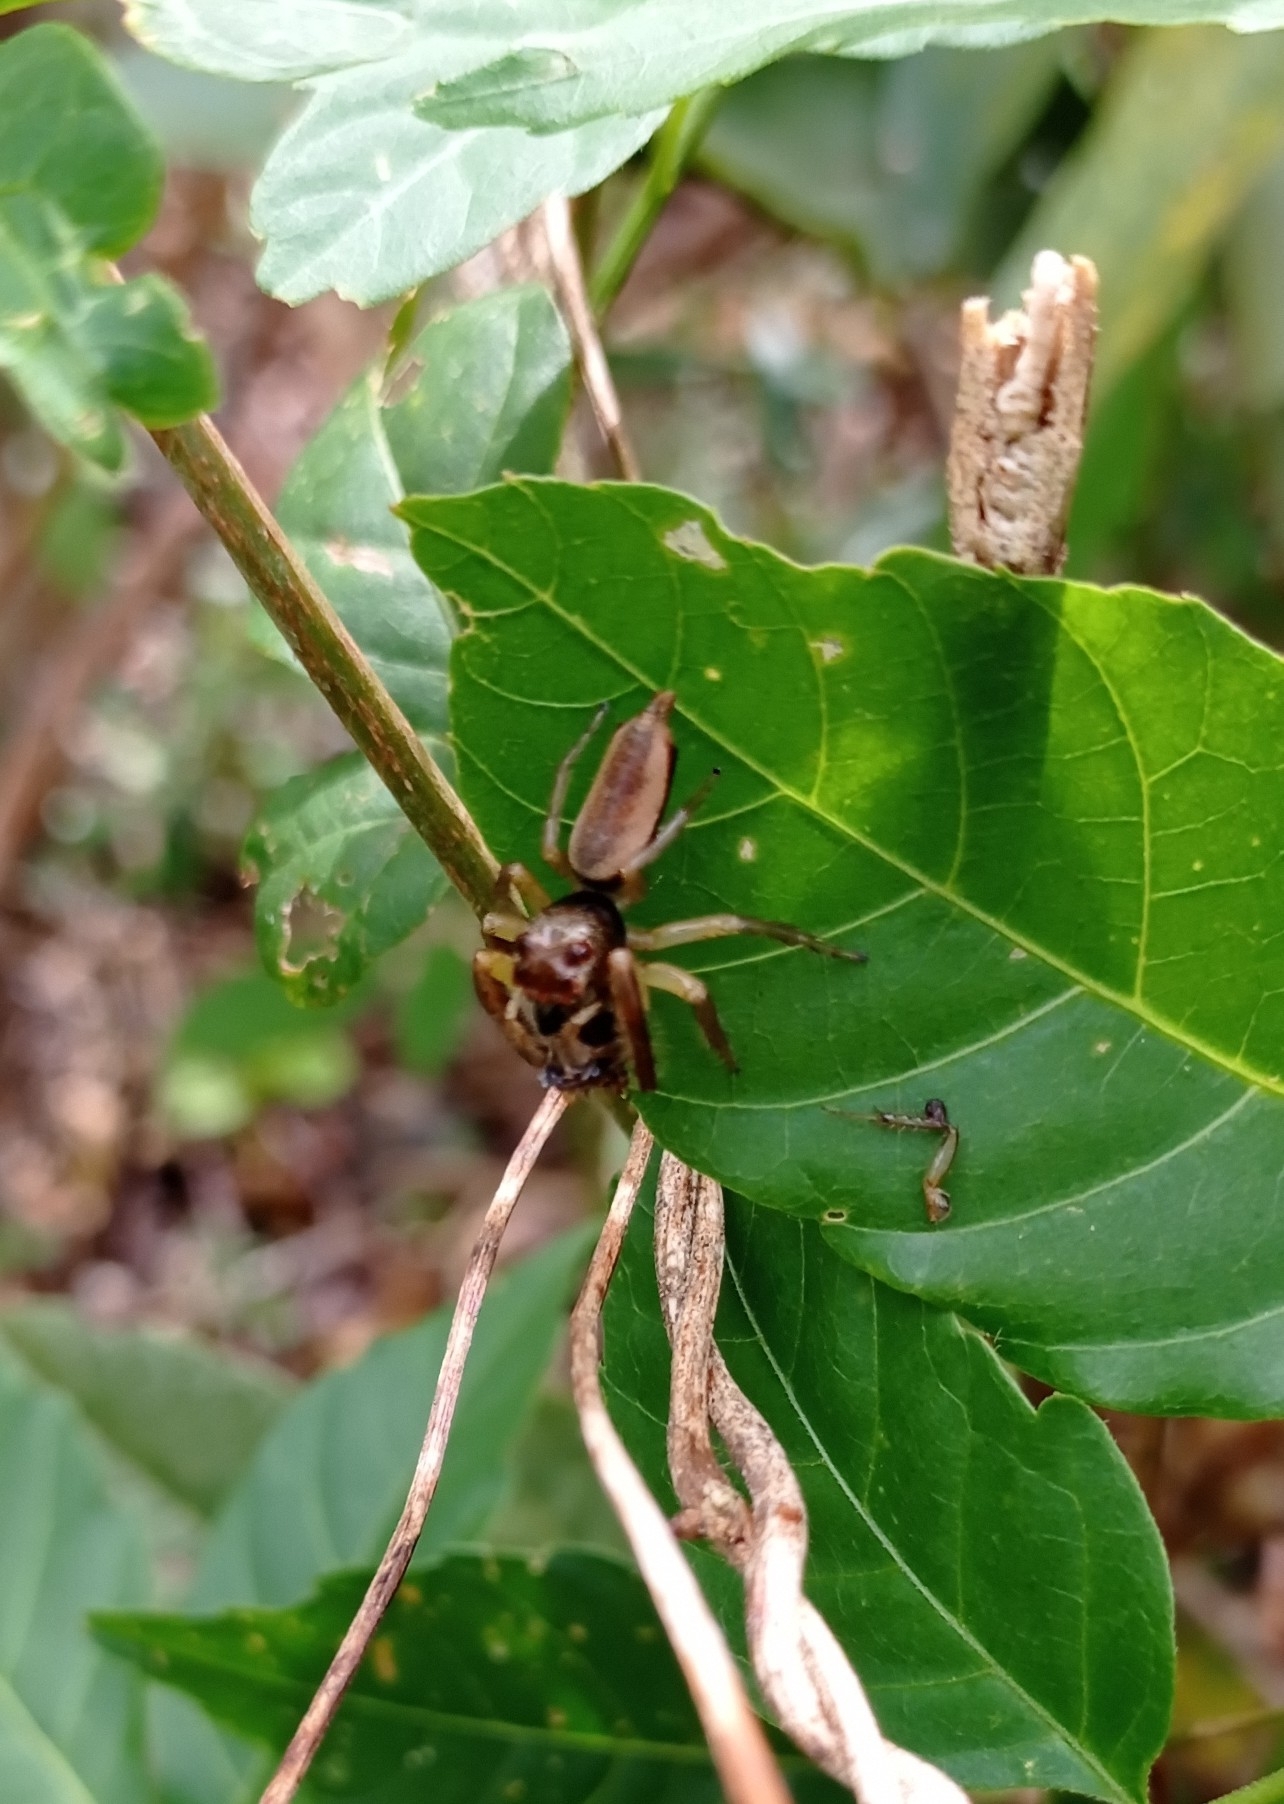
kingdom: Animalia
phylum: Arthropoda
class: Arachnida
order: Araneae
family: Salticidae
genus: Artabrus
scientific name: Artabrus aurantipilosus
